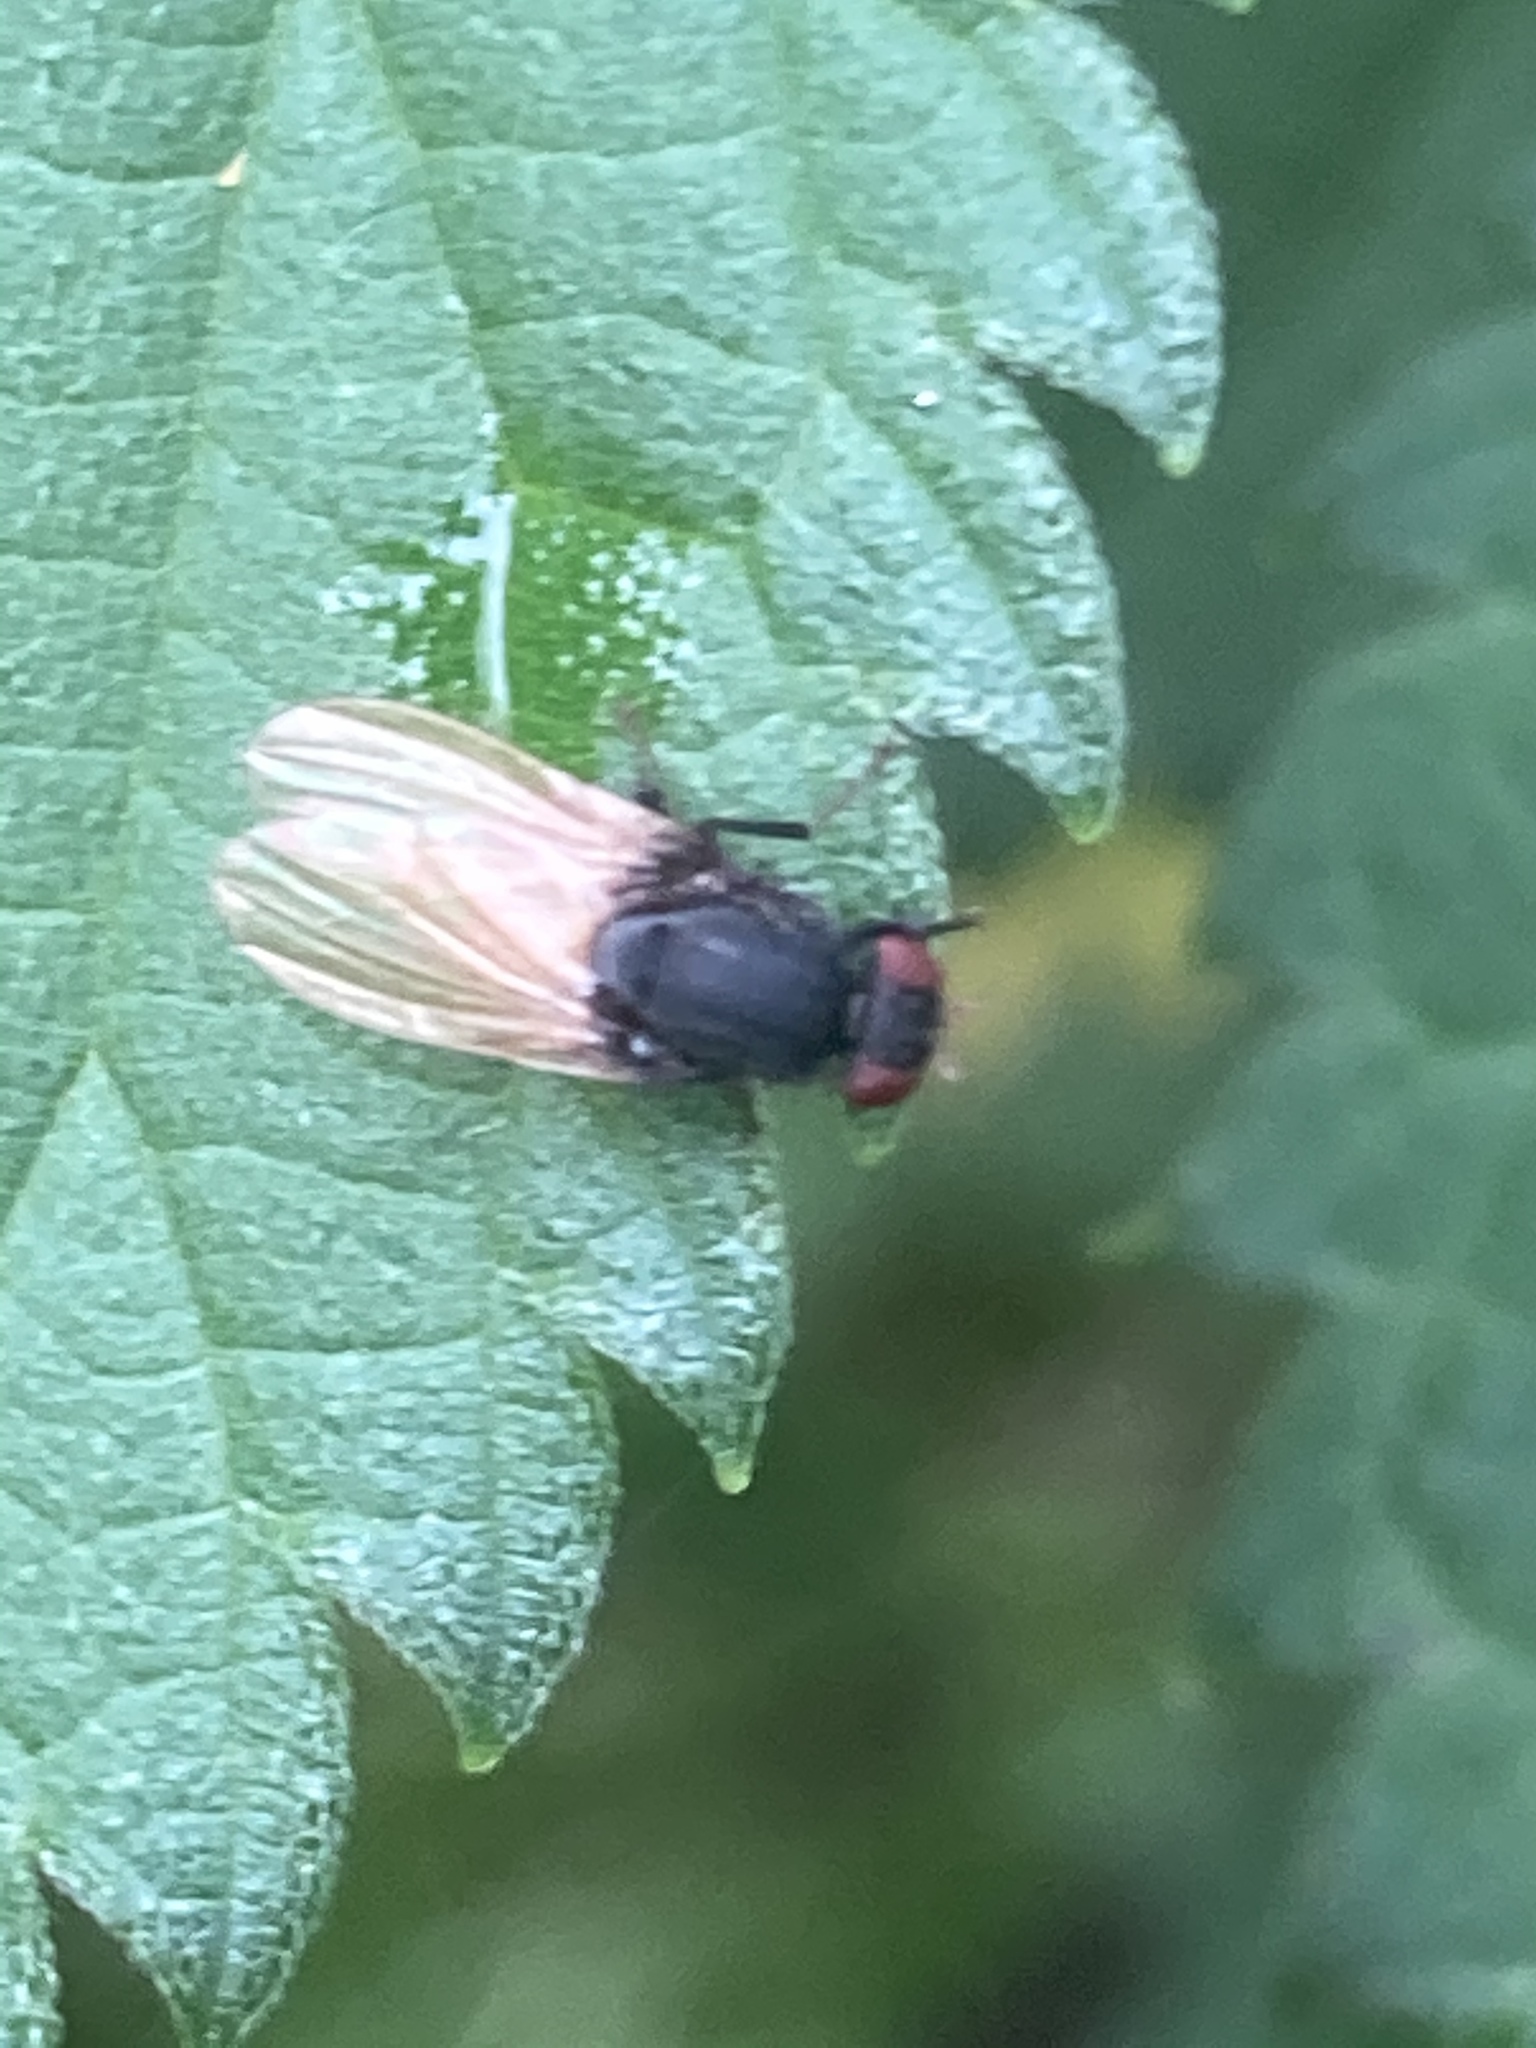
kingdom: Animalia
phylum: Arthropoda
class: Insecta
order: Diptera
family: Lauxaniidae
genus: Minettia
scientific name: Minettia longipennis
